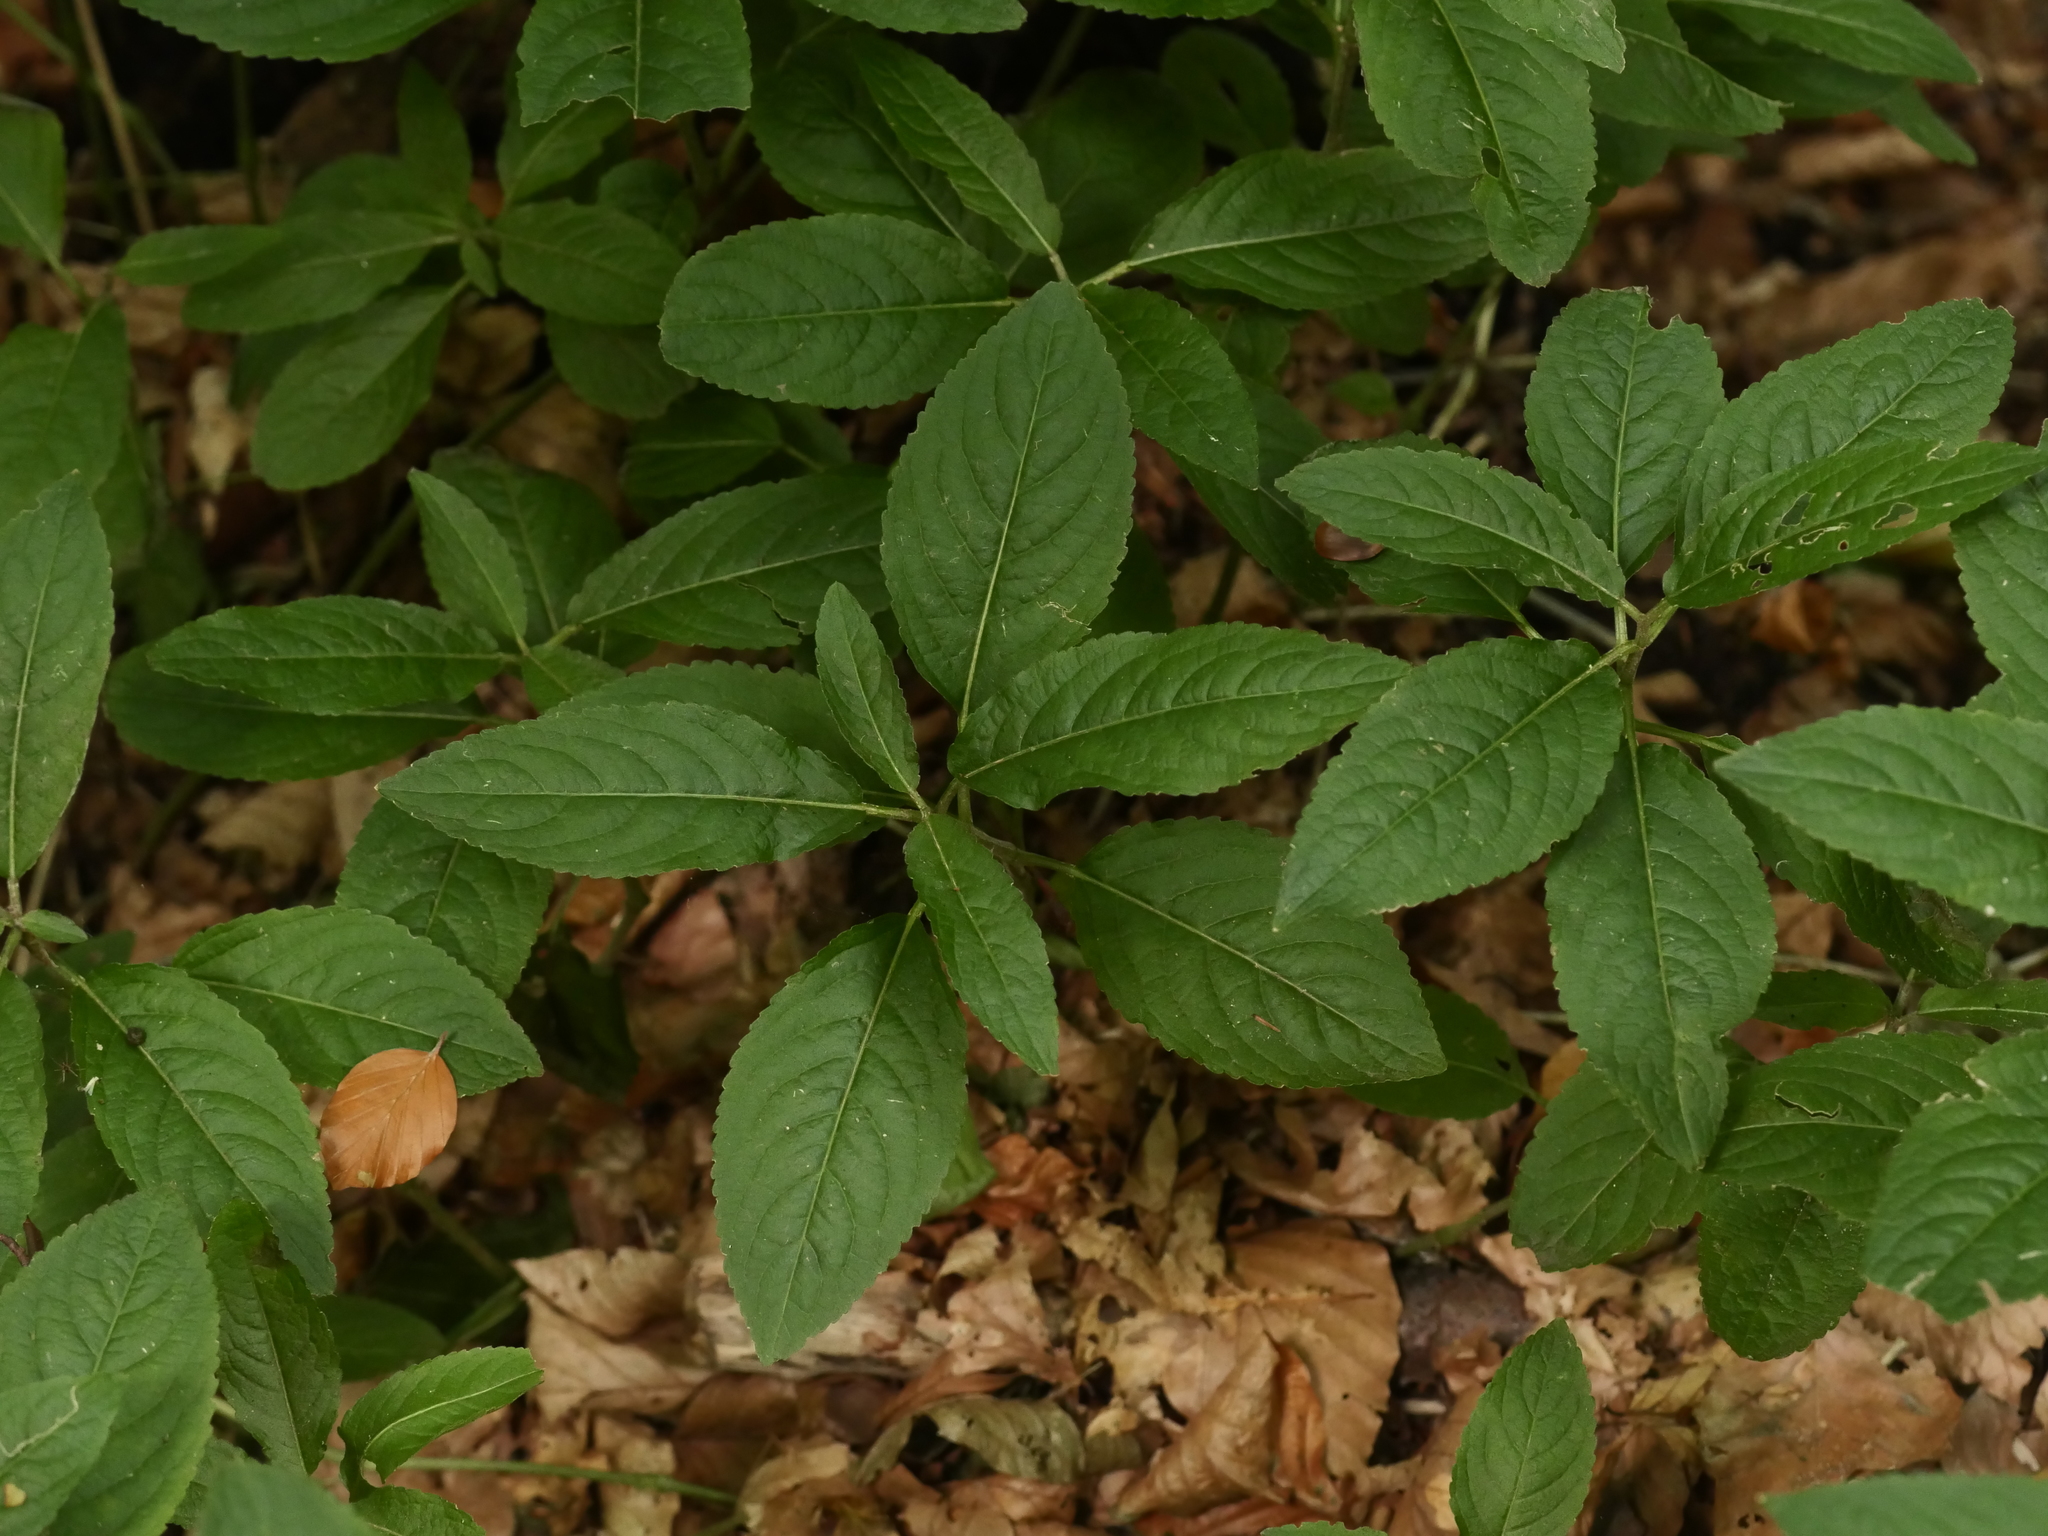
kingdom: Plantae
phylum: Tracheophyta
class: Magnoliopsida
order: Malpighiales
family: Euphorbiaceae
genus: Mercurialis
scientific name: Mercurialis perennis
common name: Dog mercury
